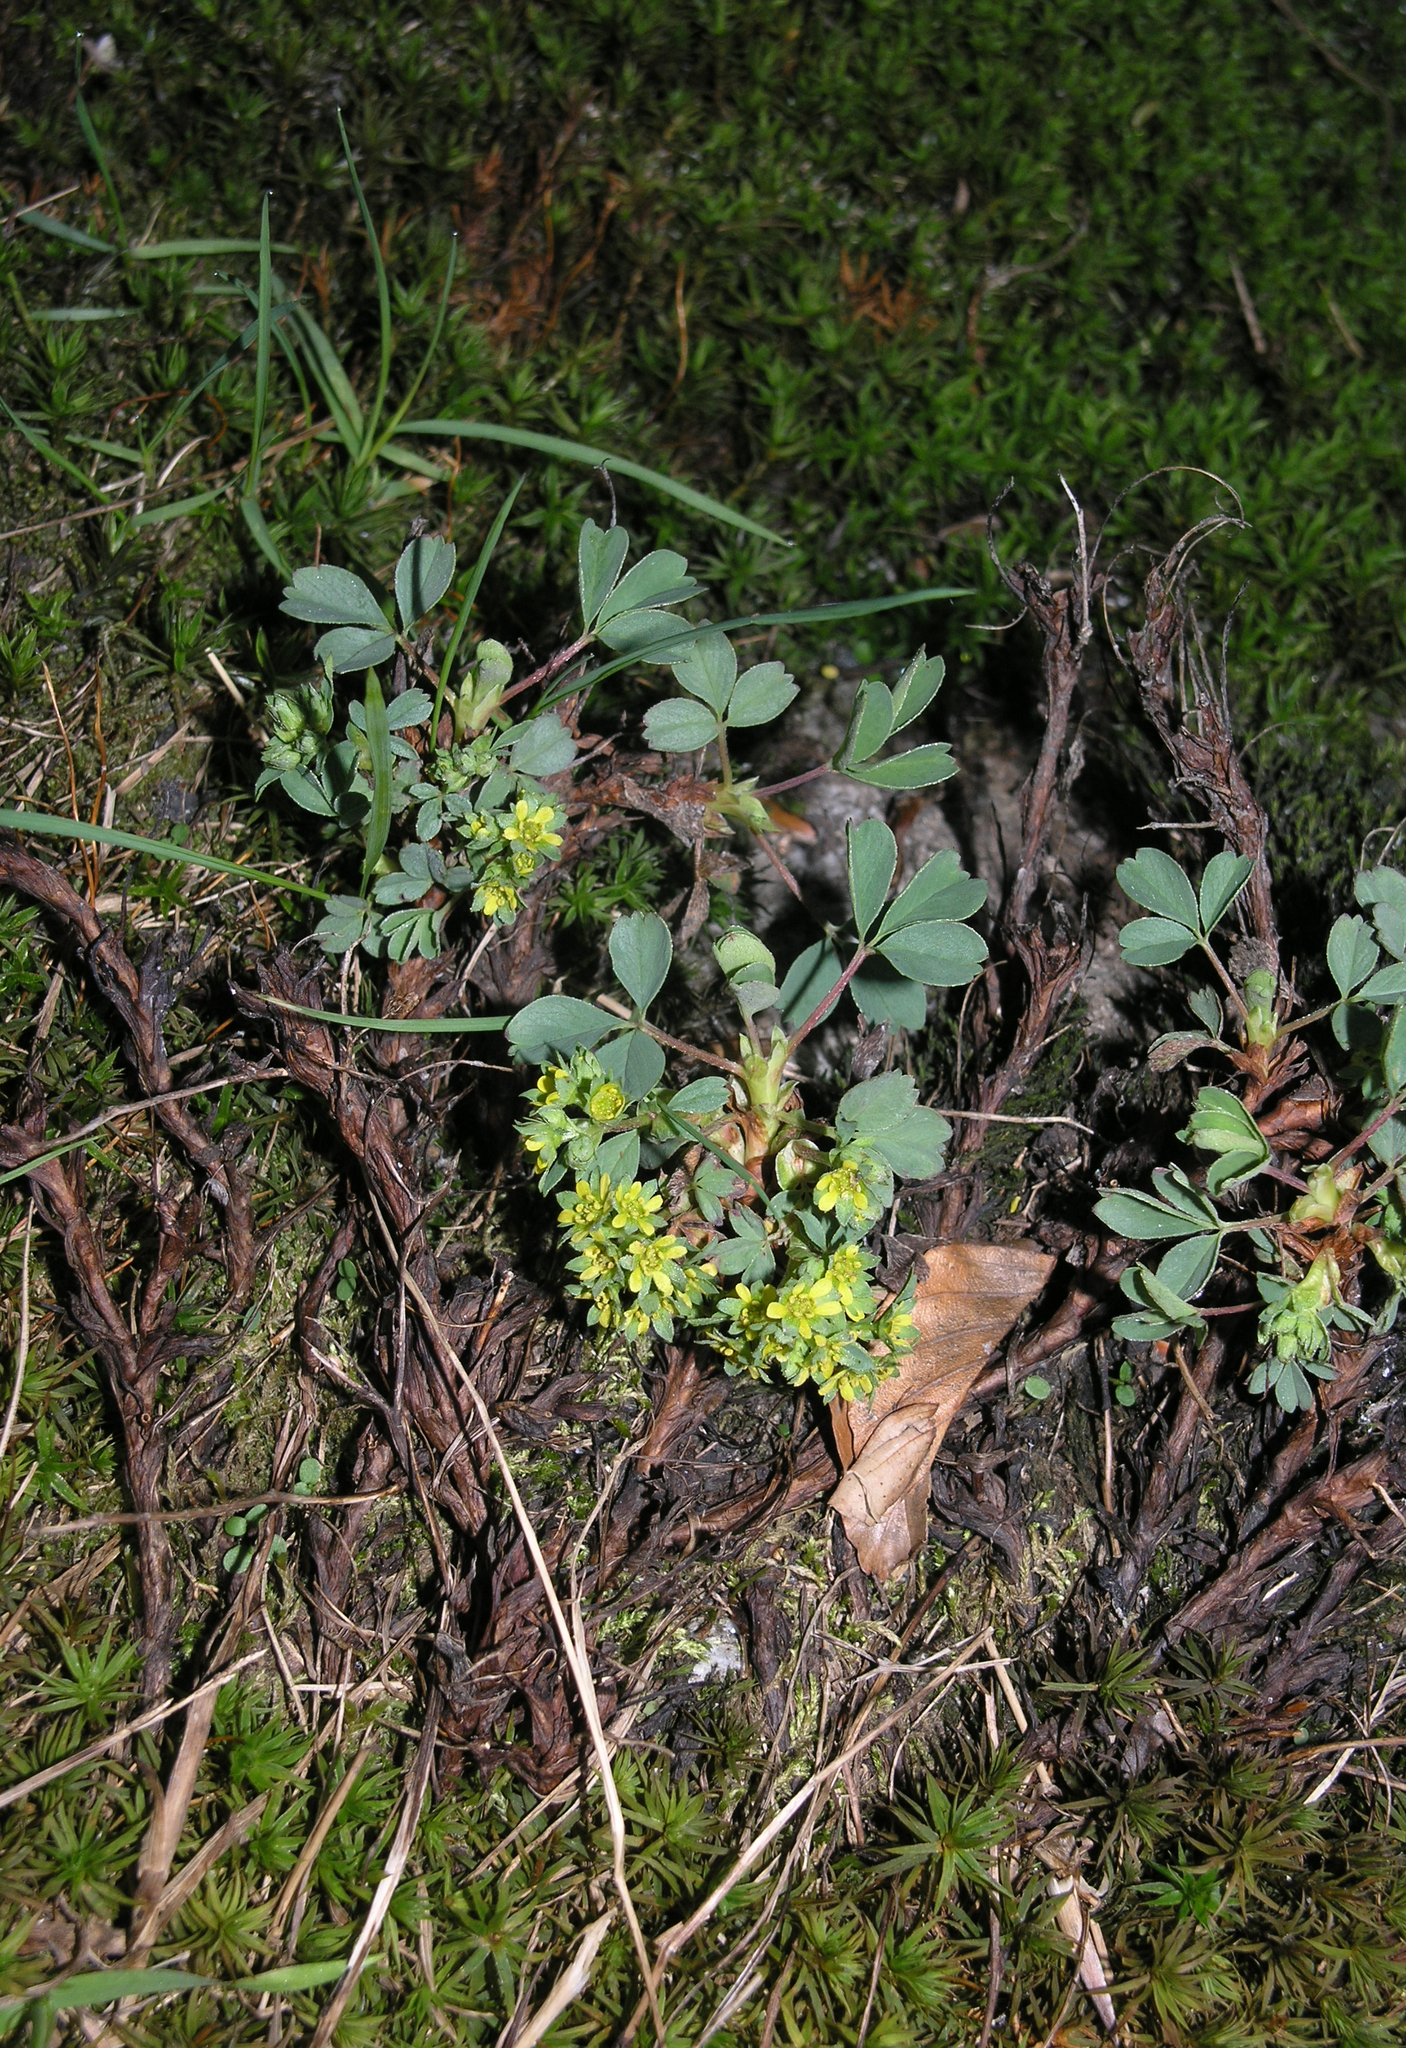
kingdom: Plantae
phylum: Tracheophyta
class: Magnoliopsida
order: Rosales
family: Rosaceae
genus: Sibbaldia
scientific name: Sibbaldia parviflora
